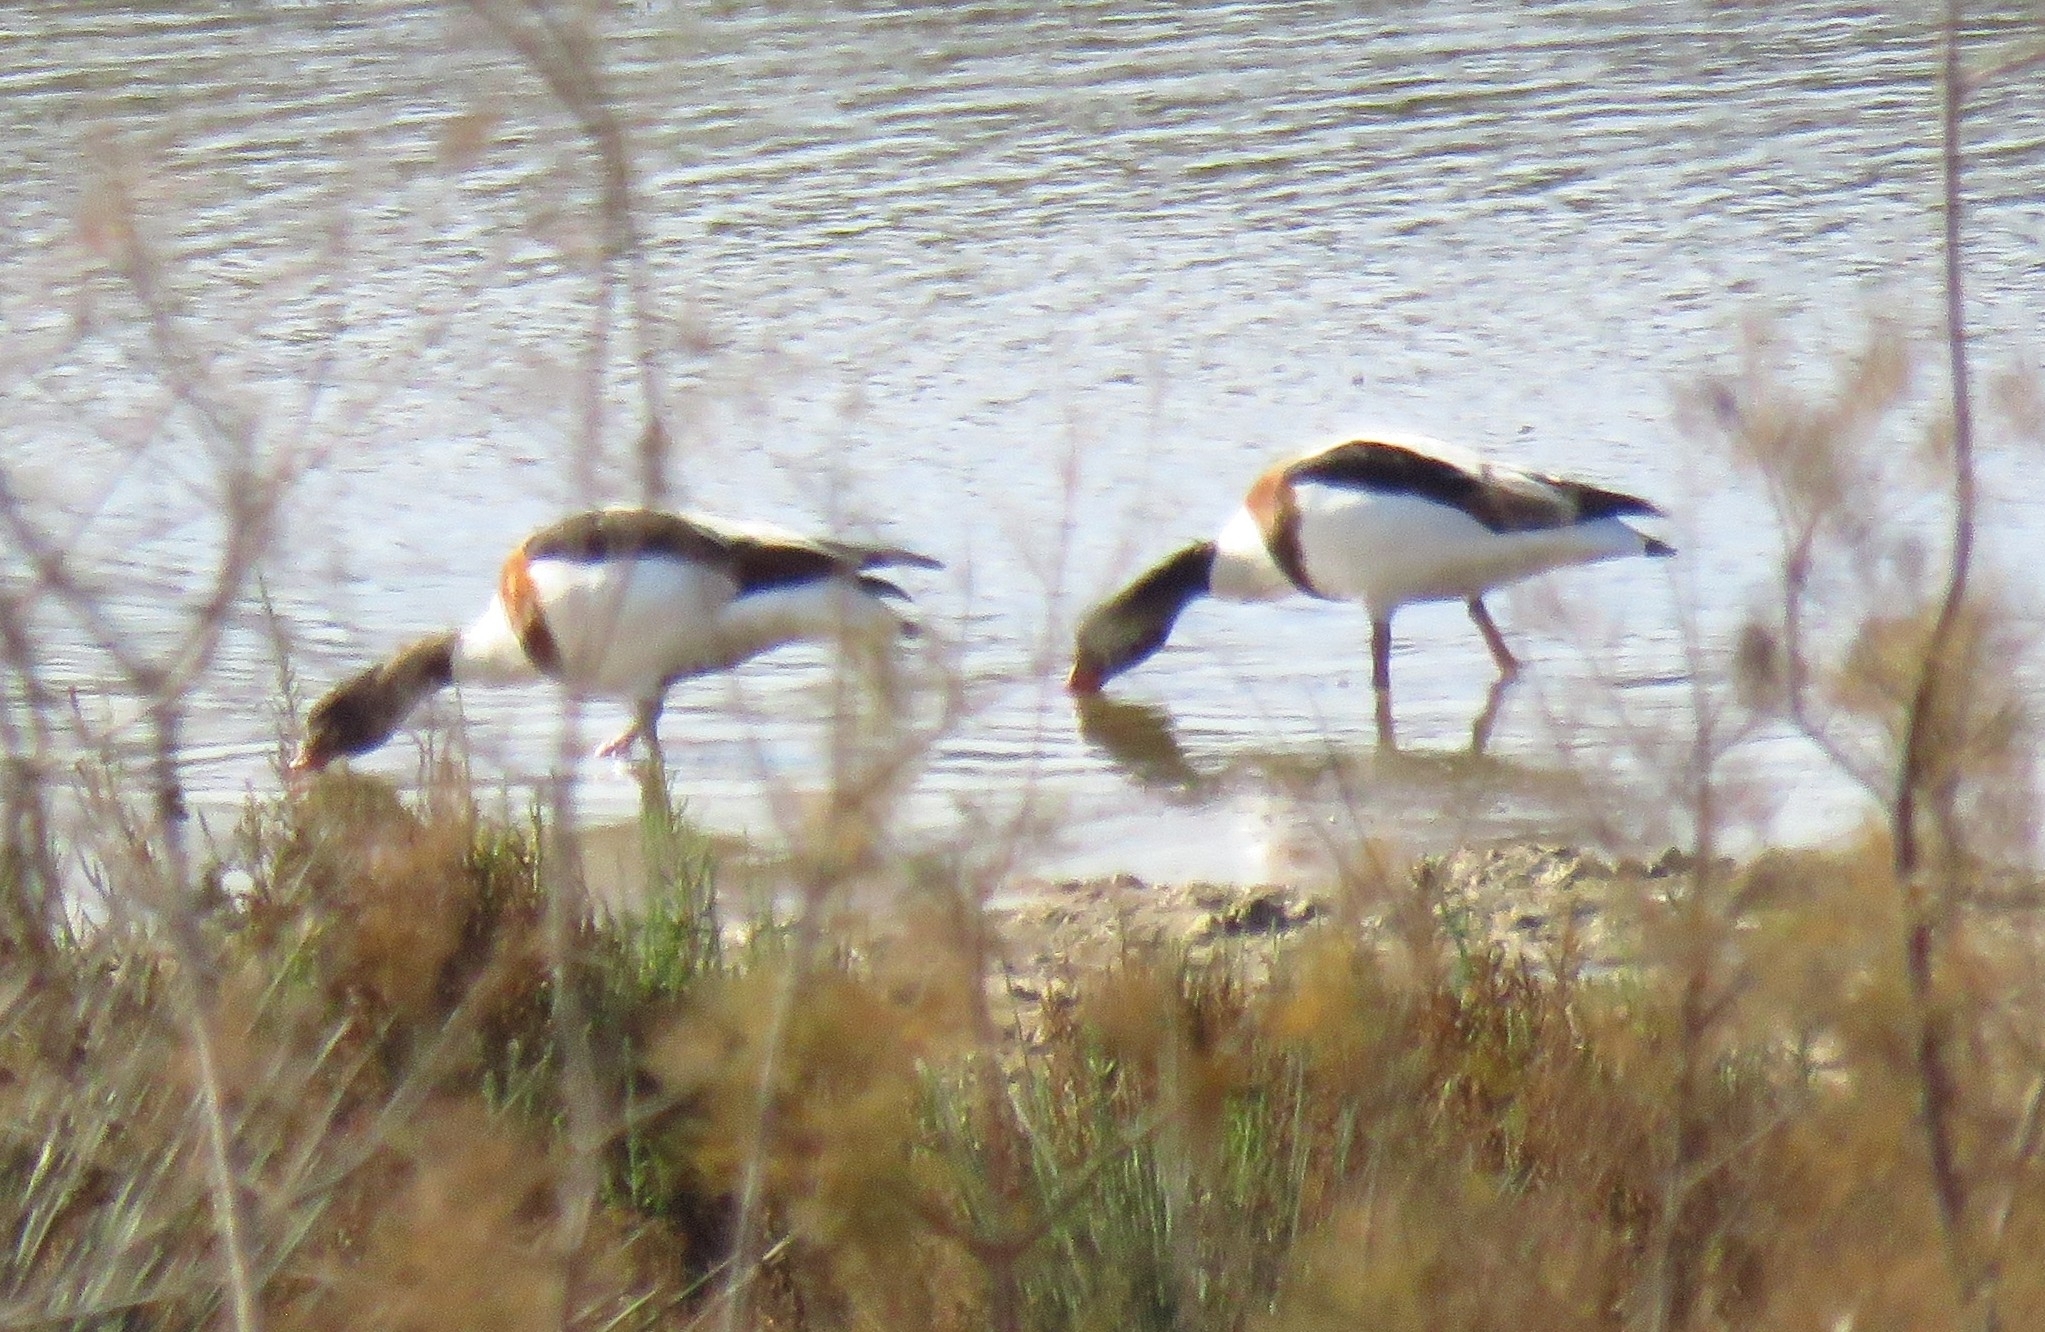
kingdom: Animalia
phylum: Chordata
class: Aves
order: Anseriformes
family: Anatidae
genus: Tadorna
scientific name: Tadorna tadorna
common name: Common shelduck
